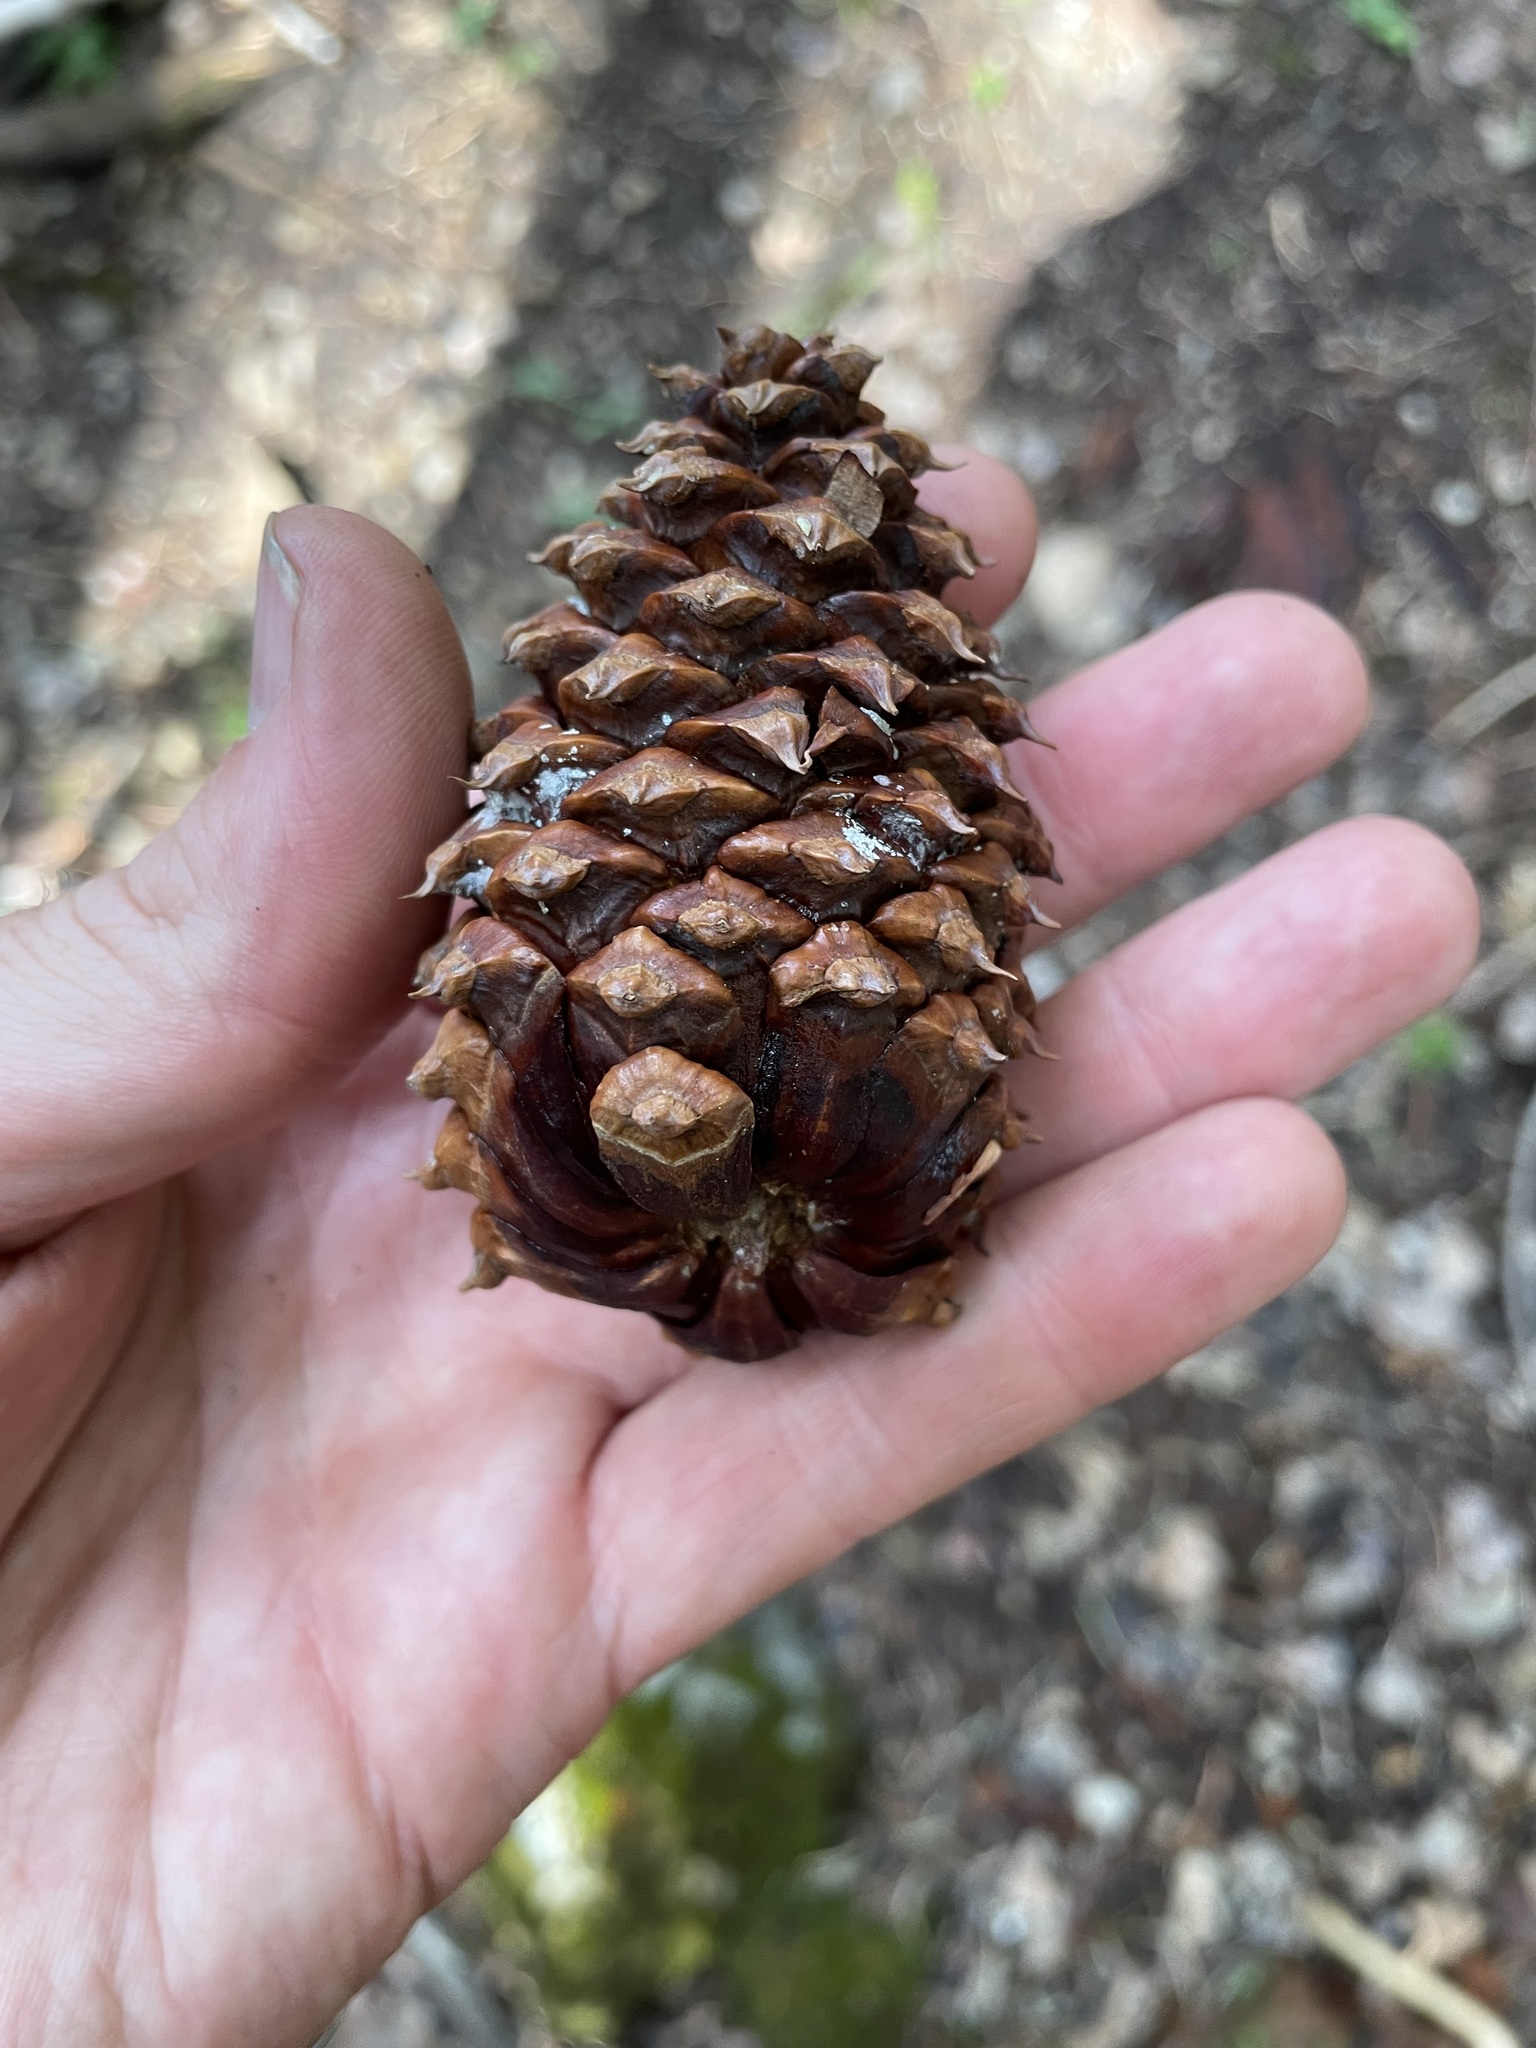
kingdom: Plantae
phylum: Tracheophyta
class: Pinopsida
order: Pinales
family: Pinaceae
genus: Pinus
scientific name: Pinus ponderosa
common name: Western yellow-pine
